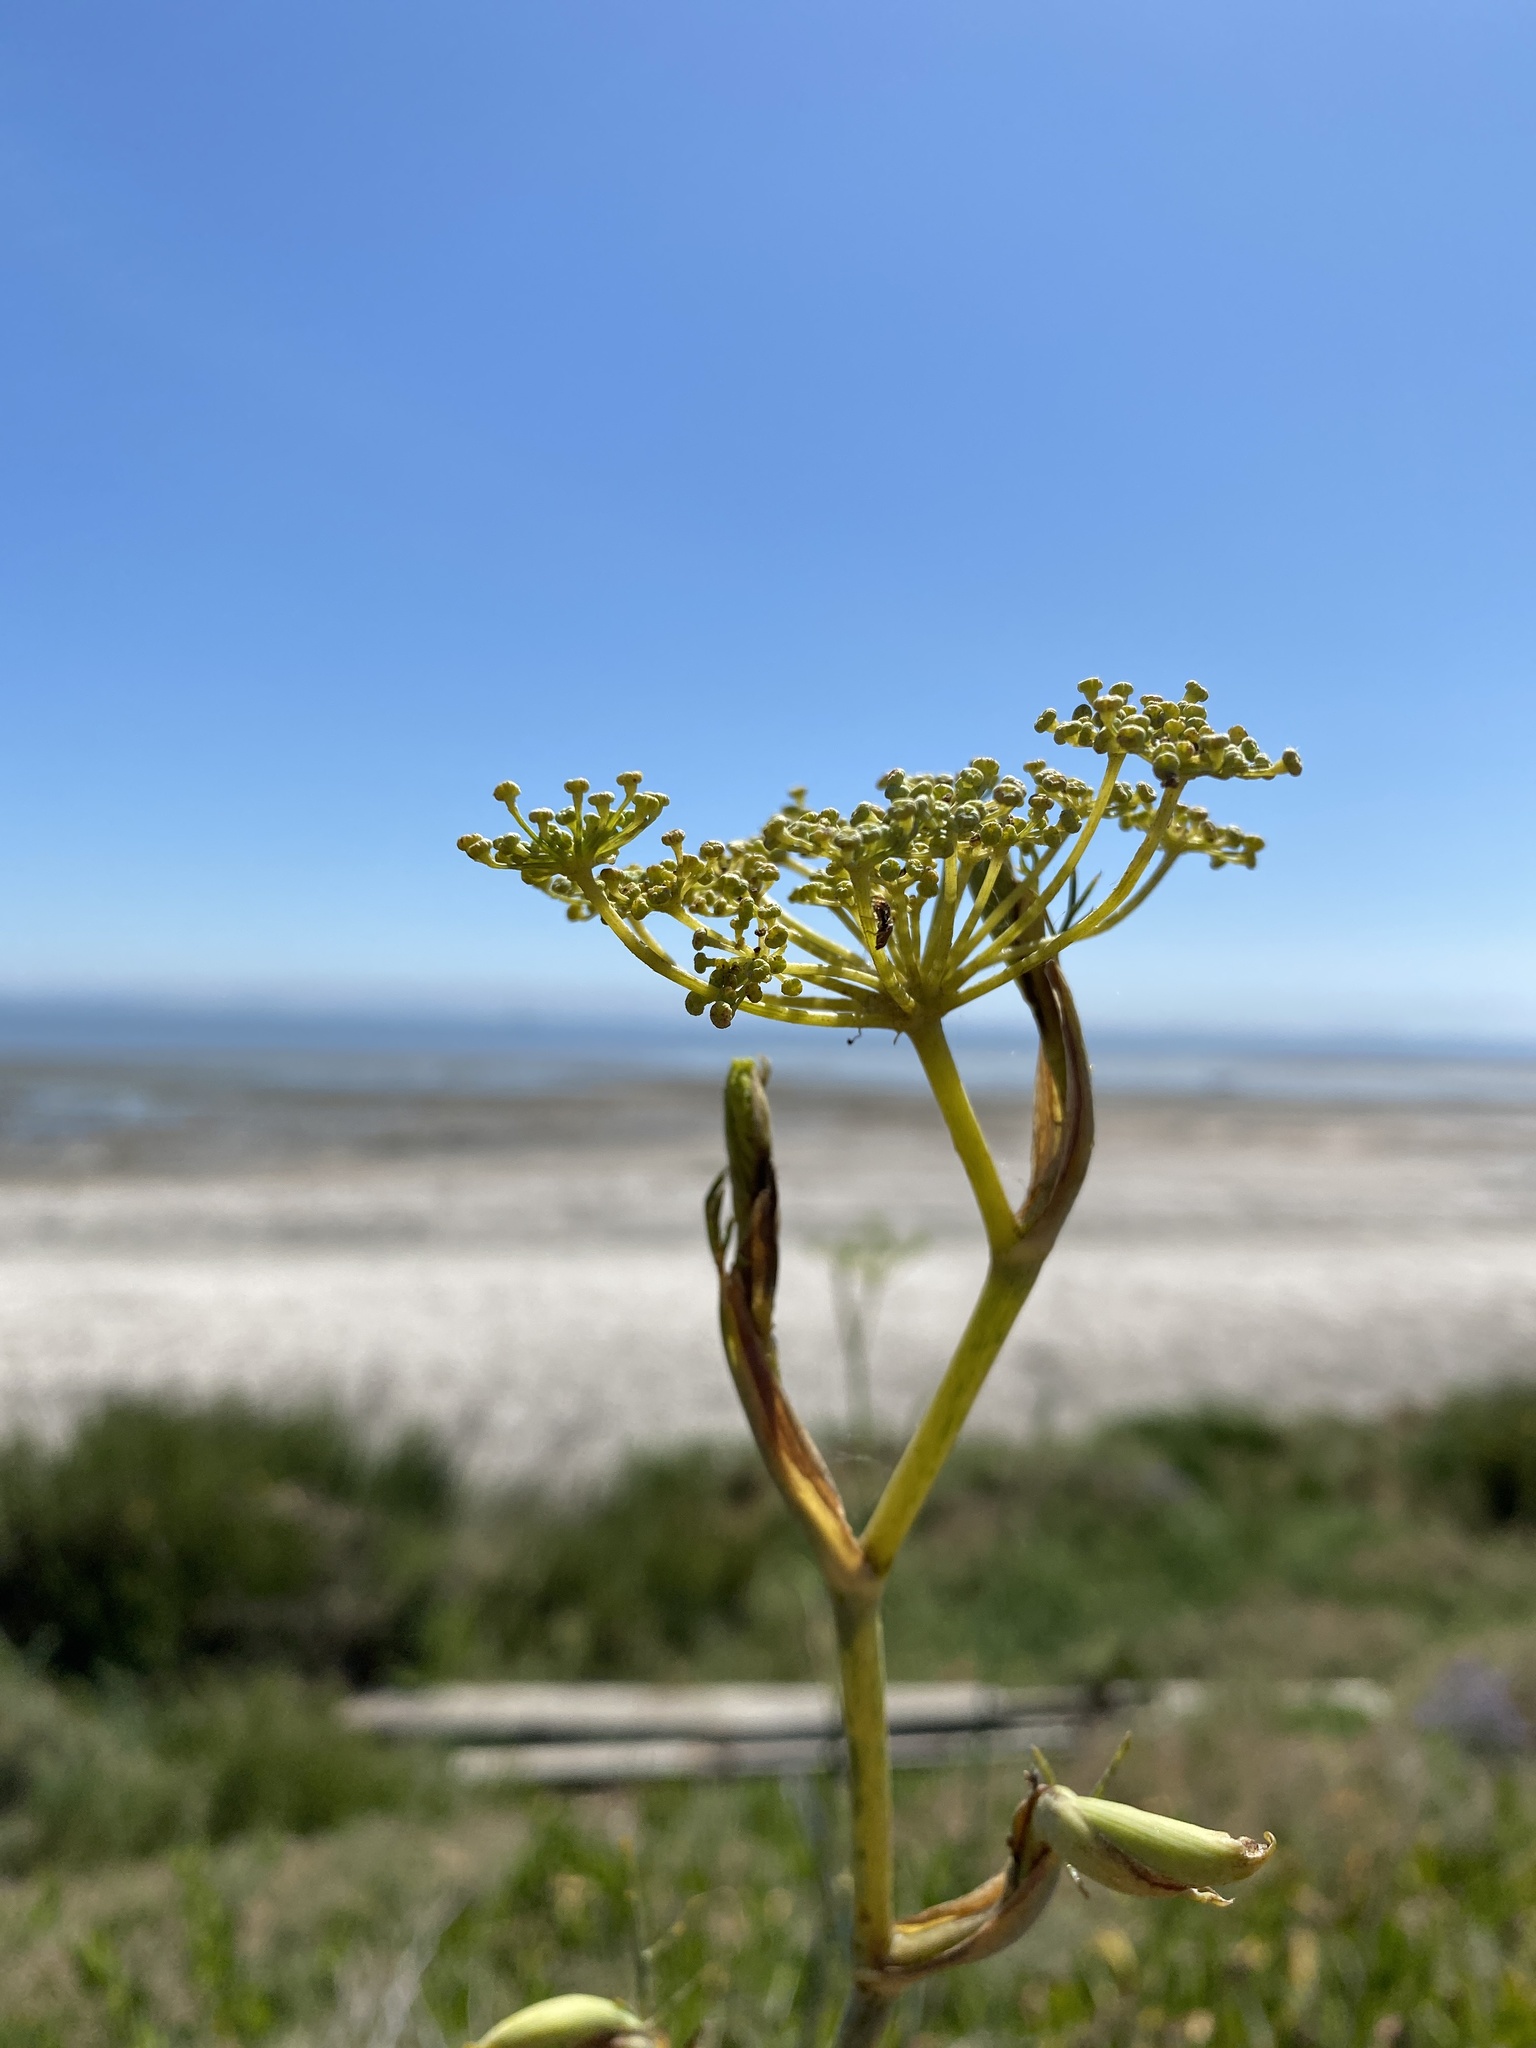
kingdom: Plantae
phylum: Tracheophyta
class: Magnoliopsida
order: Apiales
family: Apiaceae
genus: Foeniculum
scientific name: Foeniculum vulgare
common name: Fennel
